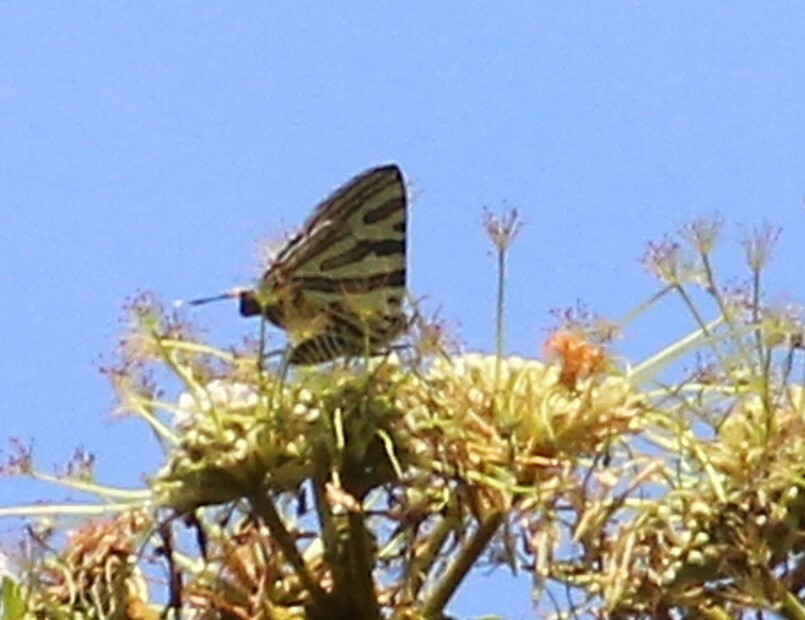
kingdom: Animalia
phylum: Arthropoda
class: Insecta
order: Lepidoptera
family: Lycaenidae
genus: Cigaritis
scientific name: Cigaritis mozambica
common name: Mozambique bar
